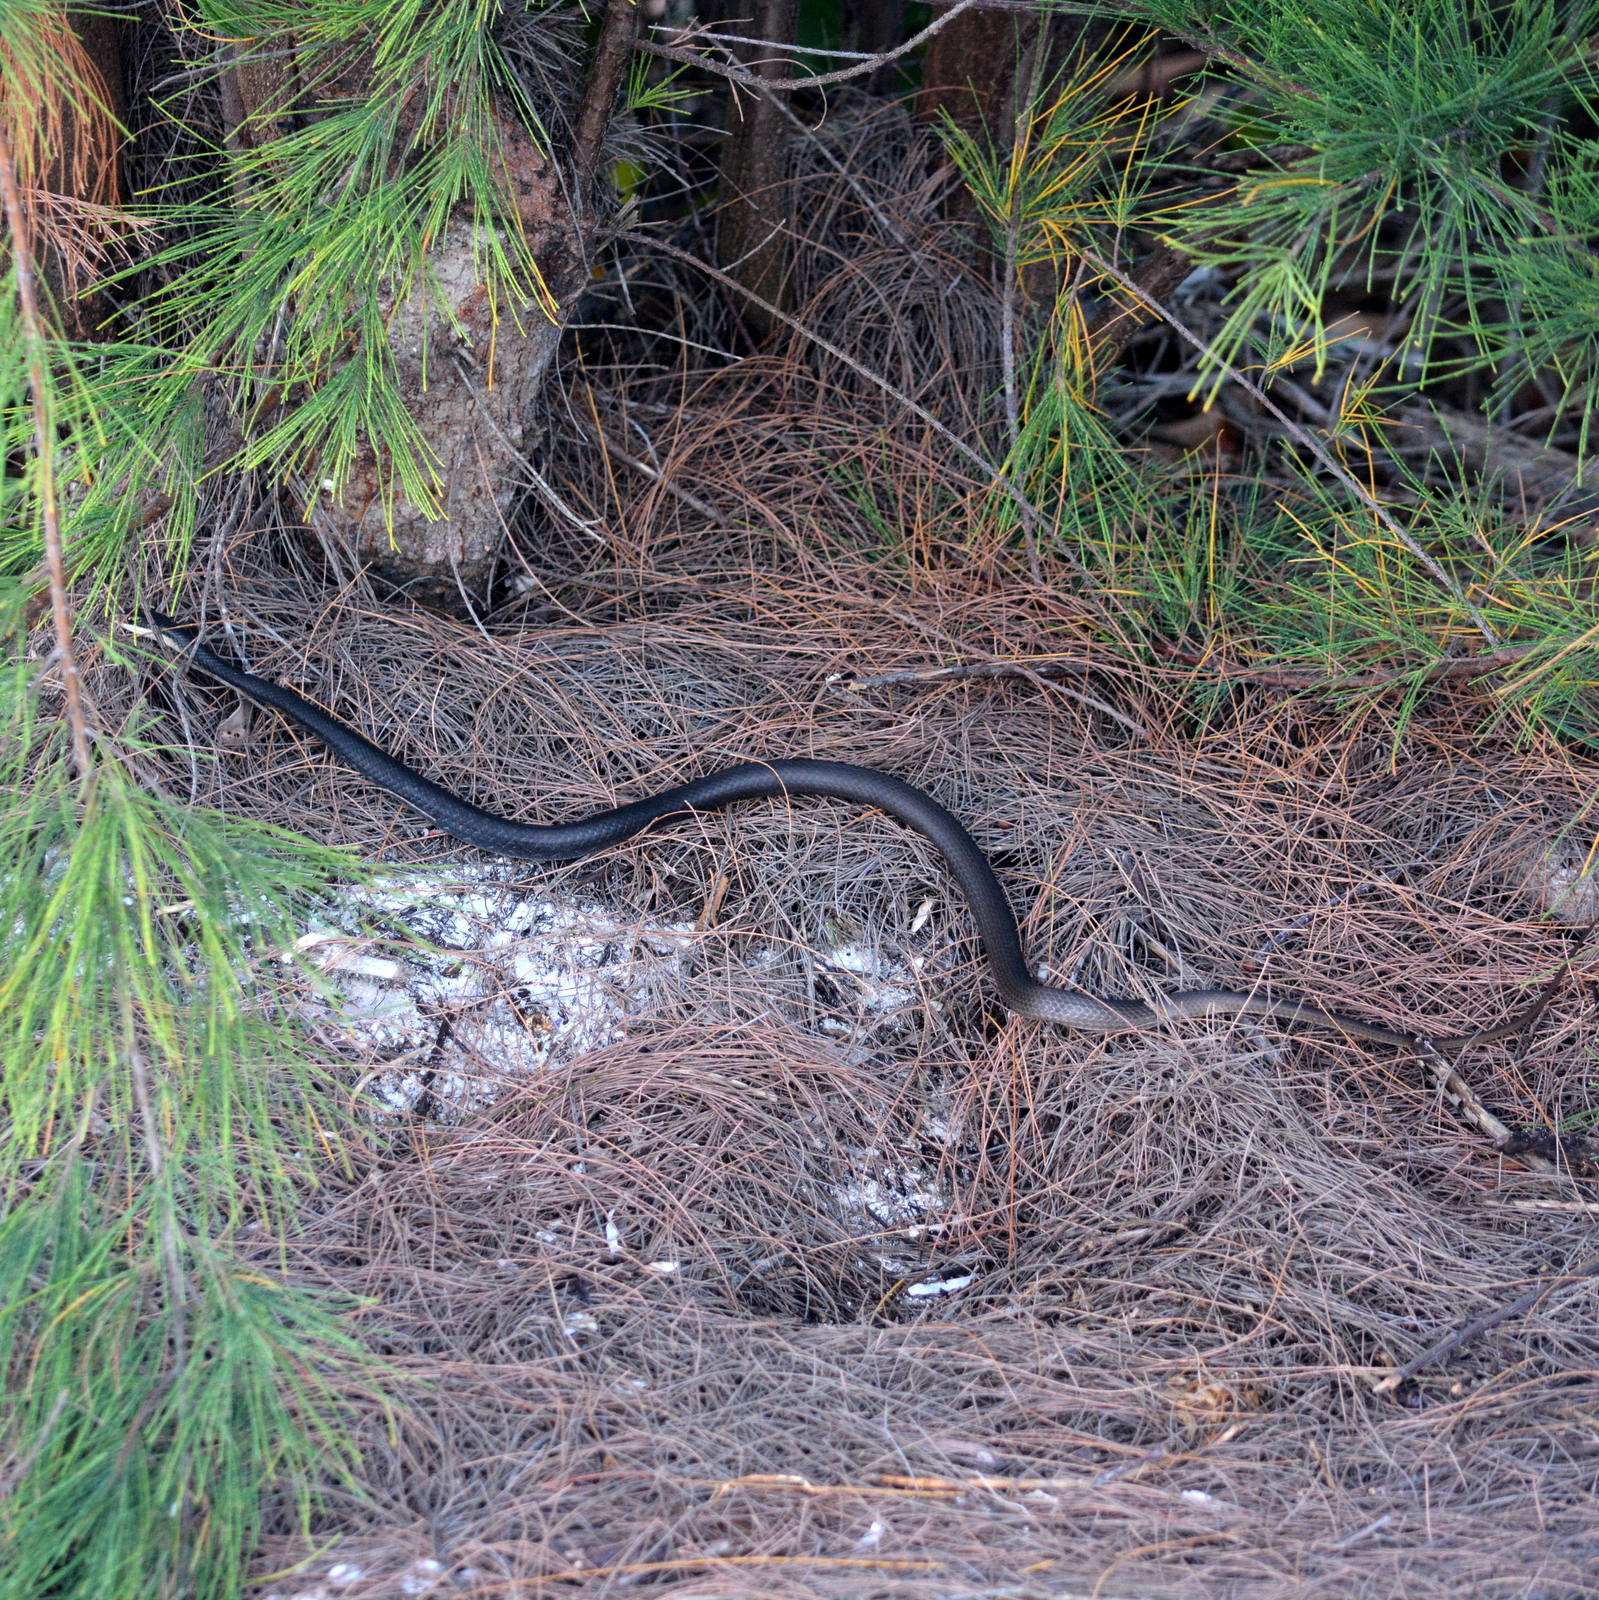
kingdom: Animalia
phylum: Chordata
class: Squamata
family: Colubridae
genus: Coluber
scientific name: Coluber constrictor
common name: Eastern racer
